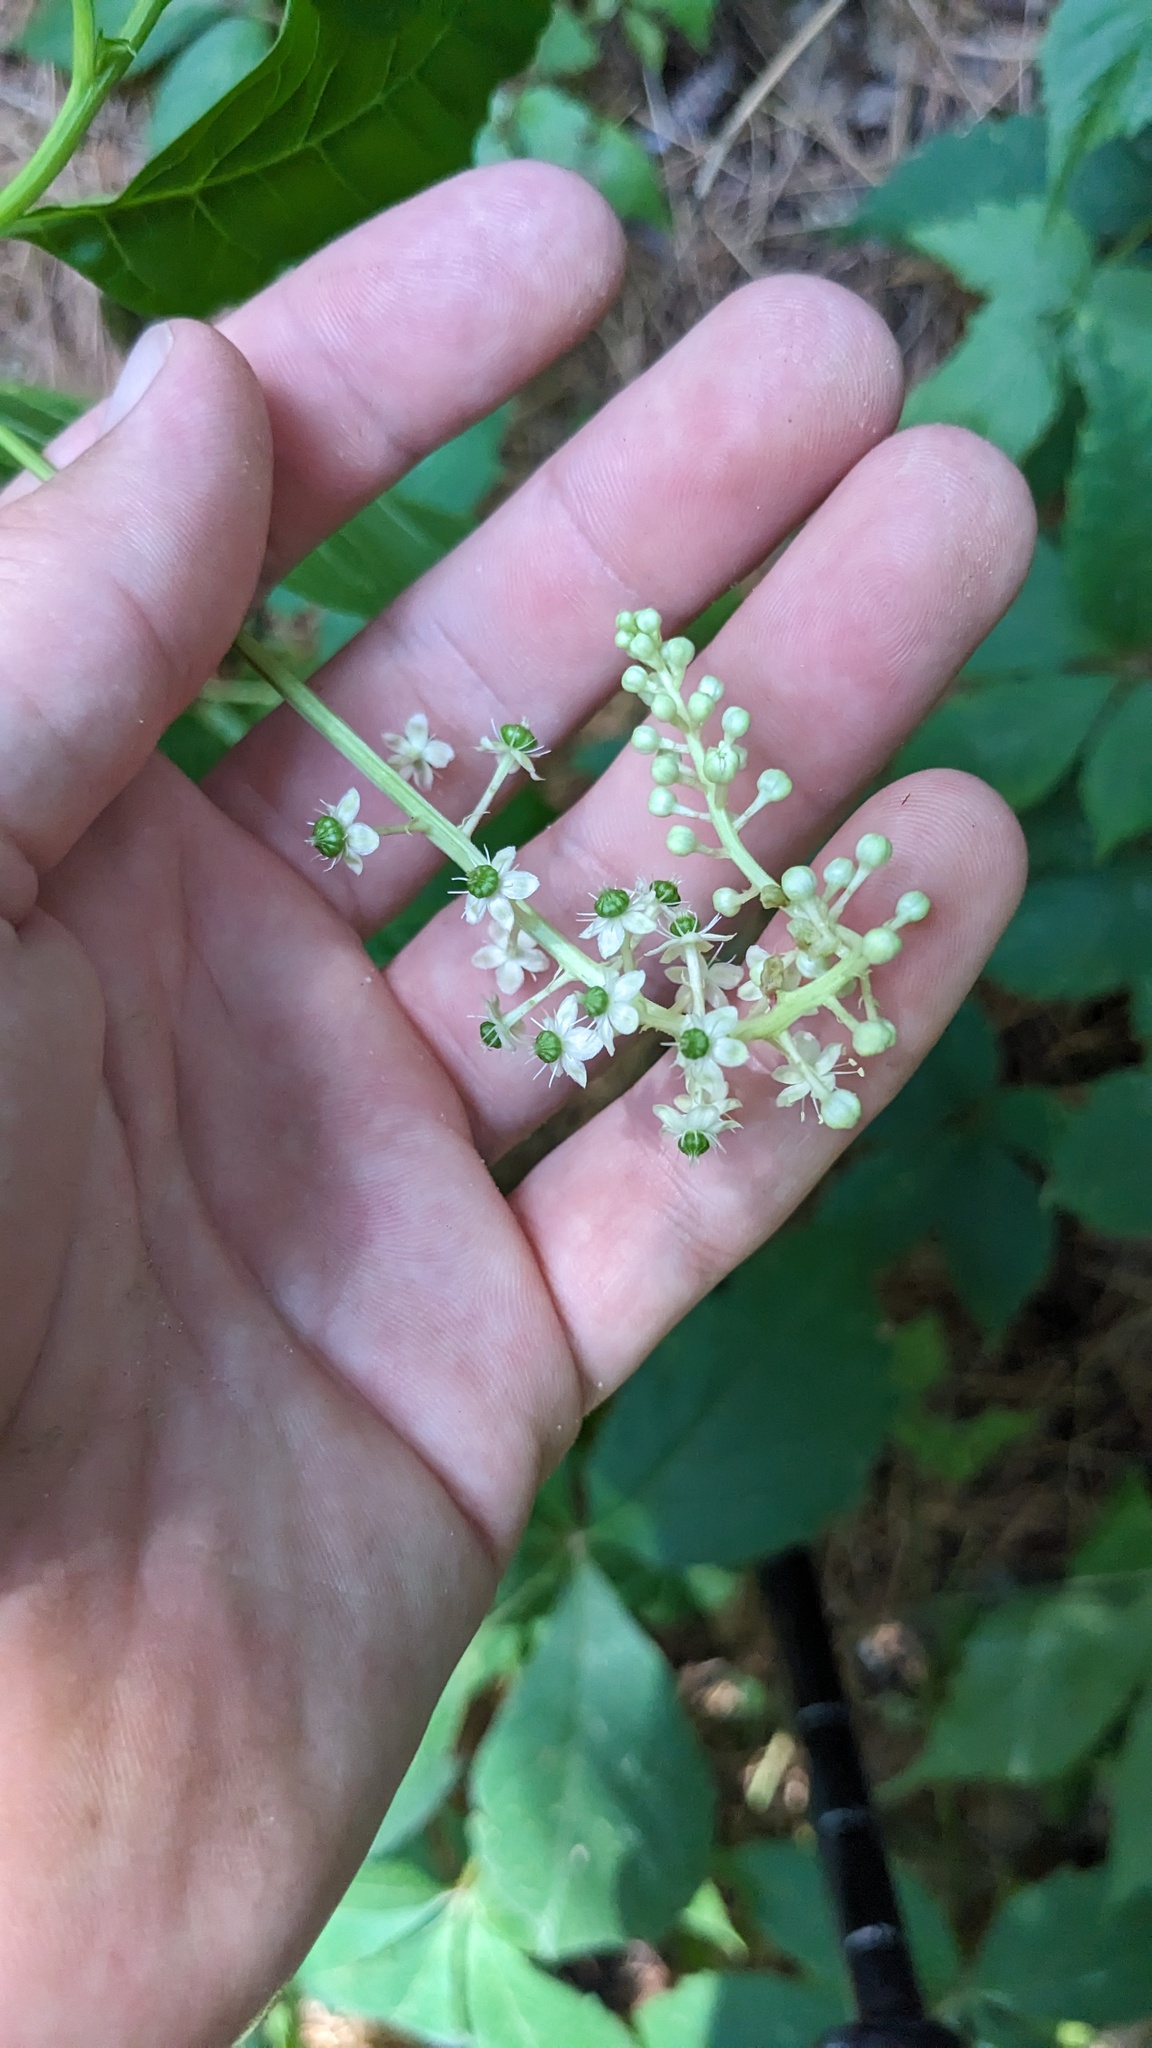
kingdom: Plantae
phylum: Tracheophyta
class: Magnoliopsida
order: Caryophyllales
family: Phytolaccaceae
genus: Phytolacca
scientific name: Phytolacca americana
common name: American pokeweed
